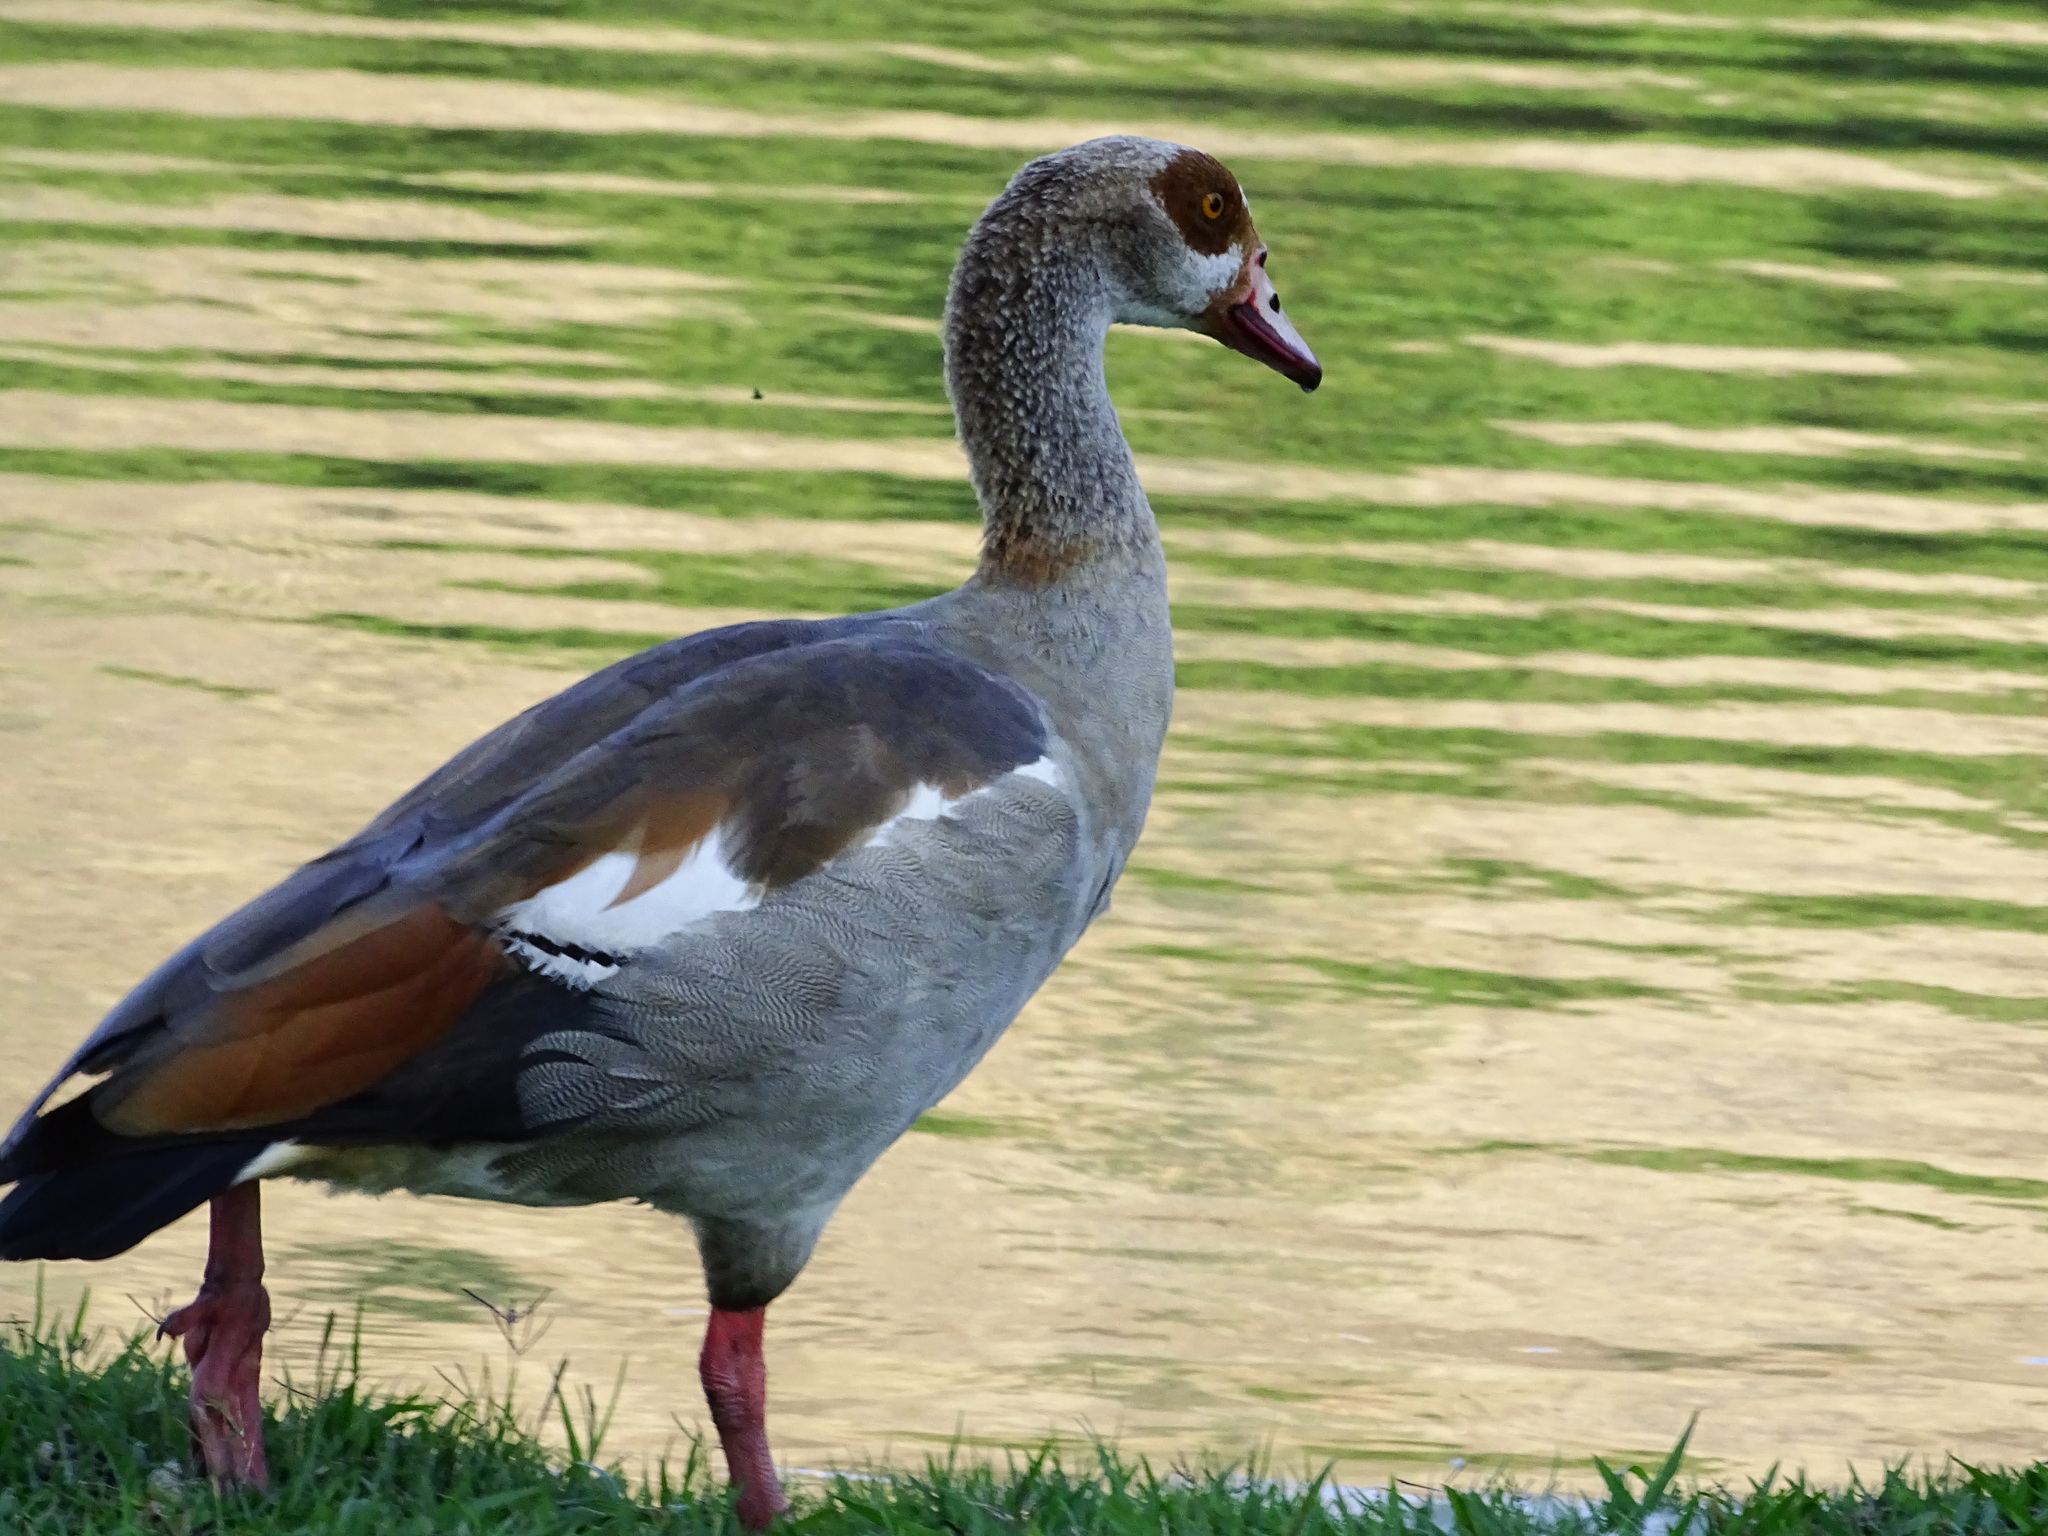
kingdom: Animalia
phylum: Chordata
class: Aves
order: Anseriformes
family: Anatidae
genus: Alopochen
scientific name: Alopochen aegyptiaca
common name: Egyptian goose
